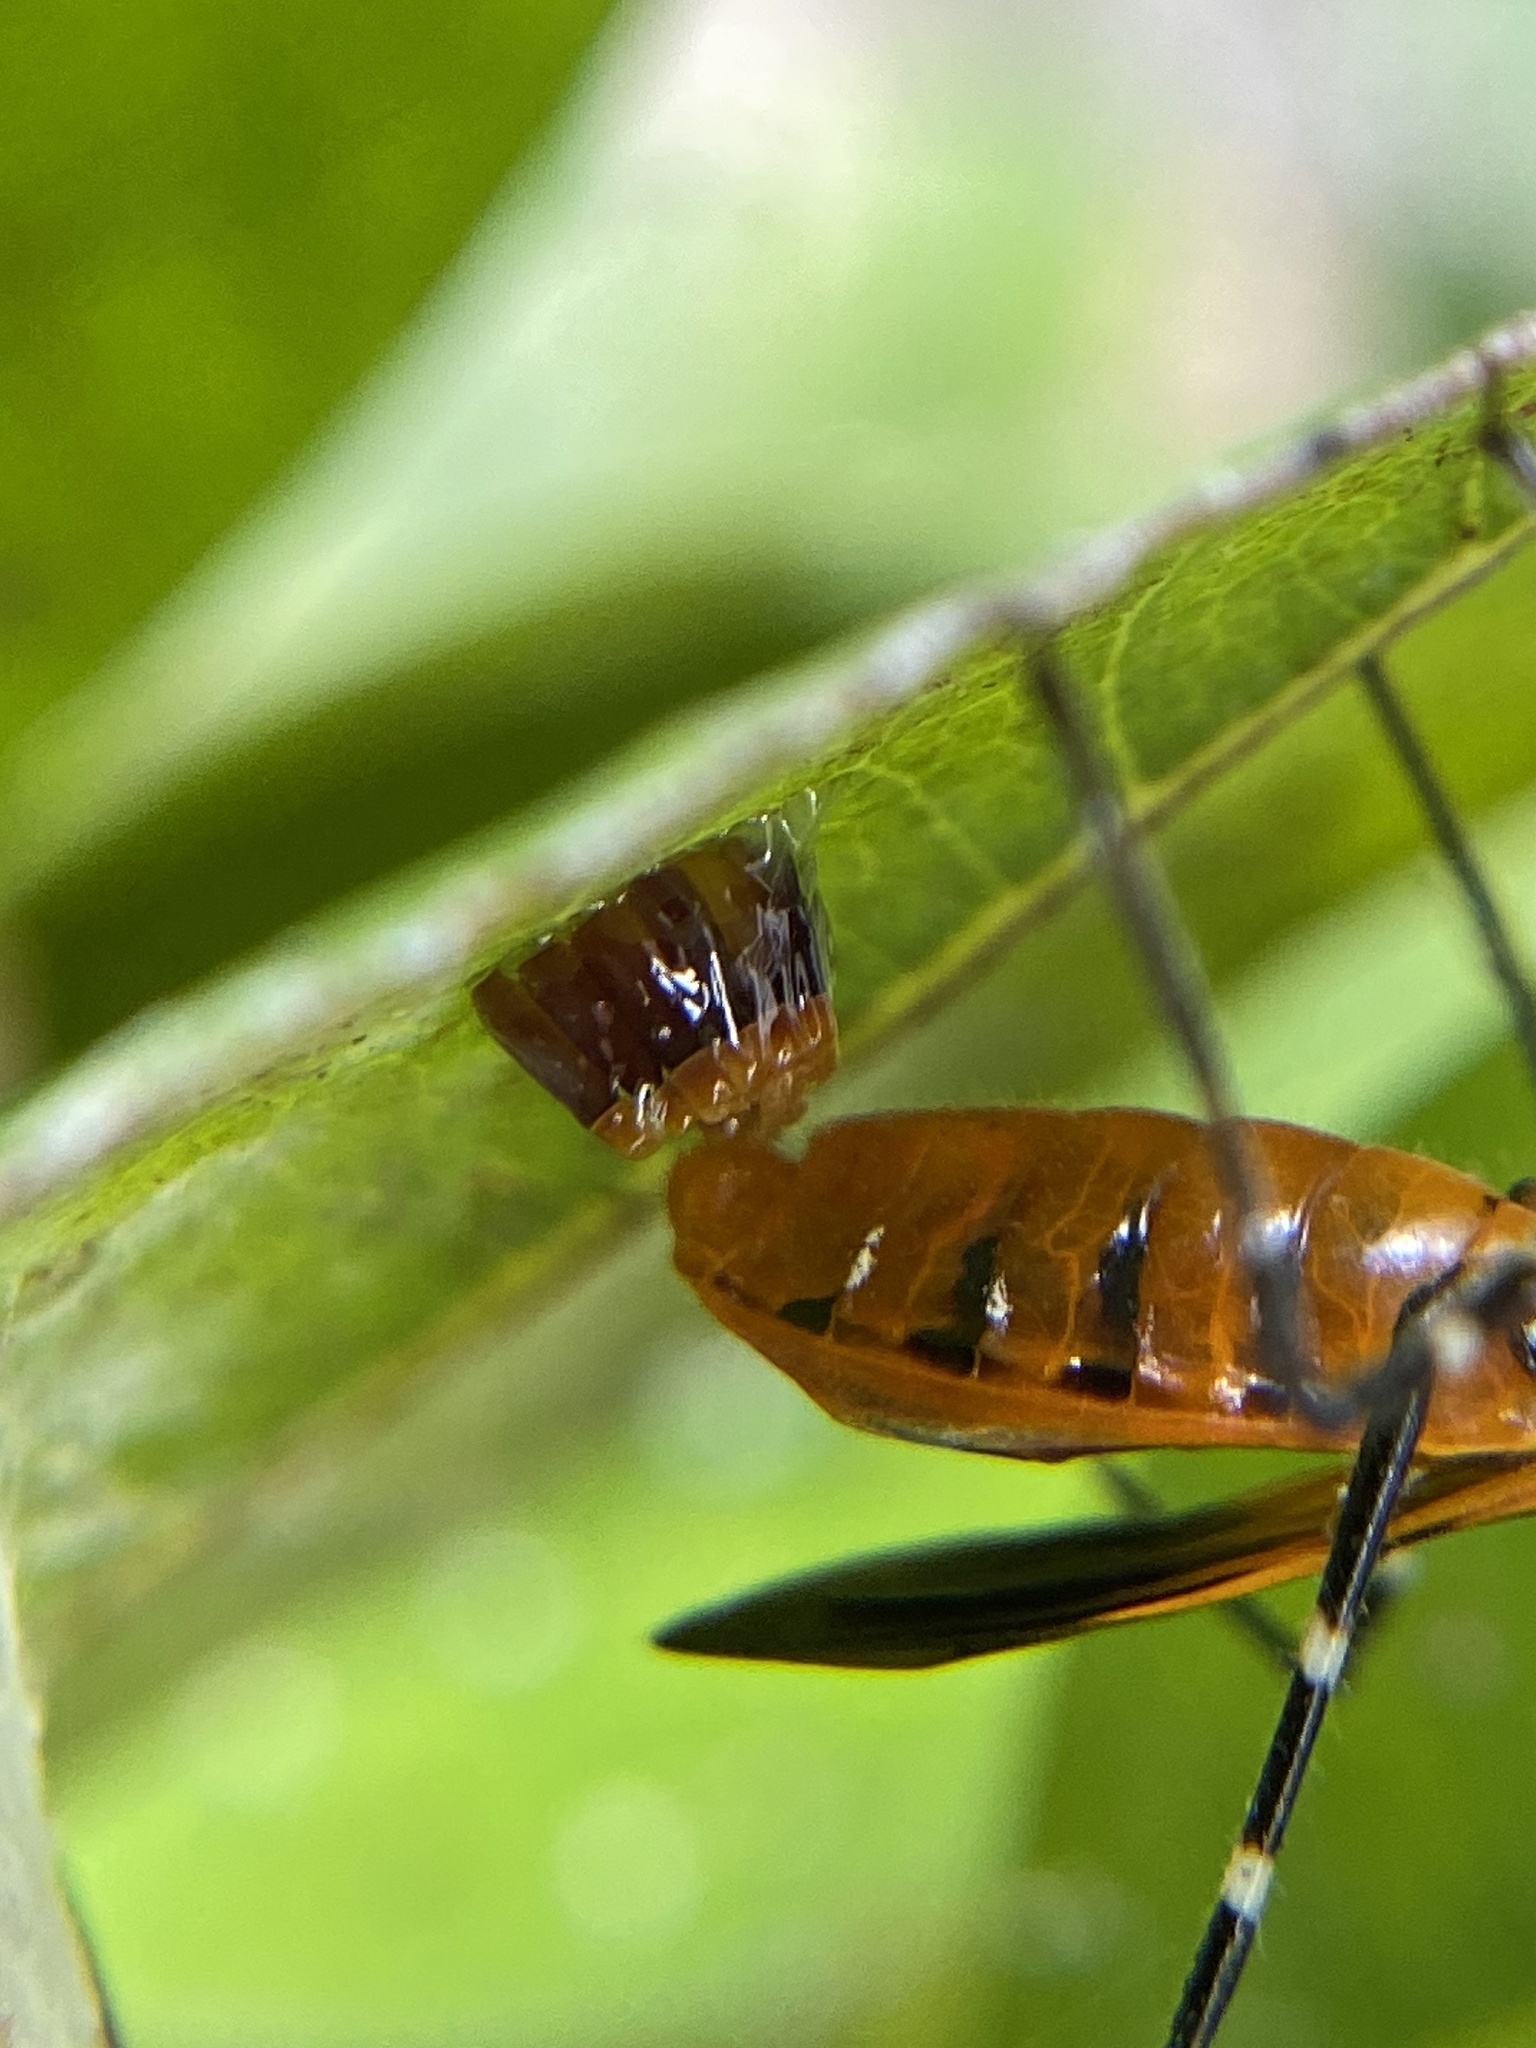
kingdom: Animalia
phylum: Arthropoda
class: Insecta
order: Hemiptera
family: Reduviidae
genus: Zelus
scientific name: Zelus longipes
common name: Milkweed assassin bug
